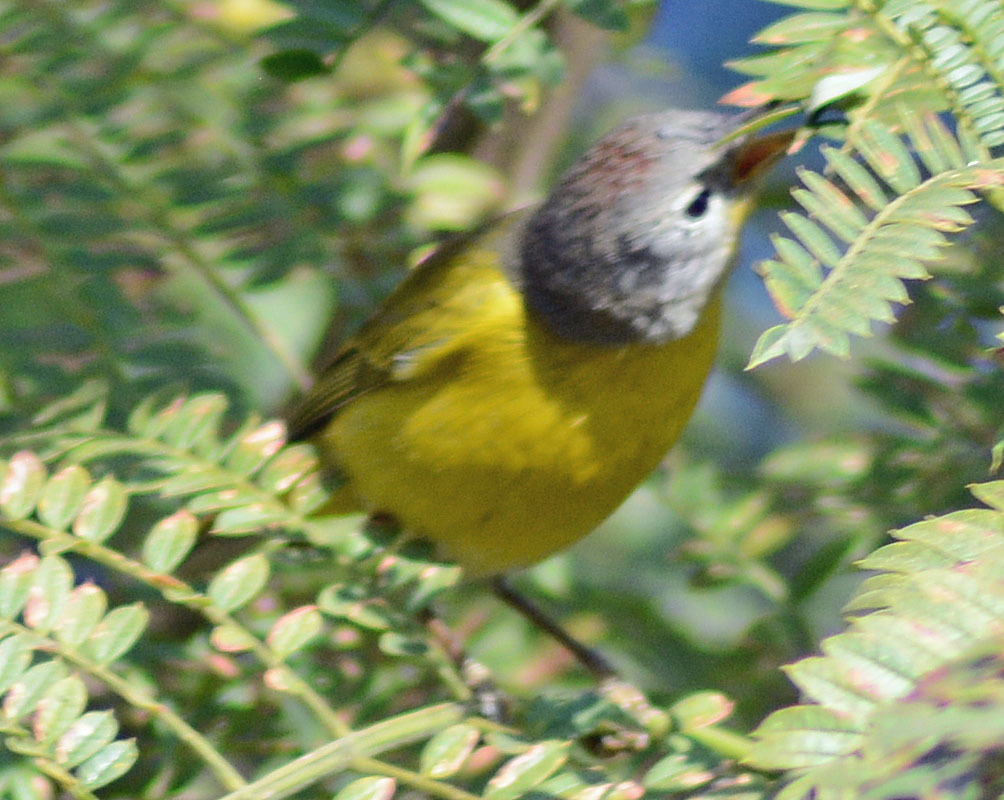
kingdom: Animalia
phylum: Chordata
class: Aves
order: Passeriformes
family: Parulidae
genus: Leiothlypis
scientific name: Leiothlypis ruficapilla
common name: Nashville warbler
